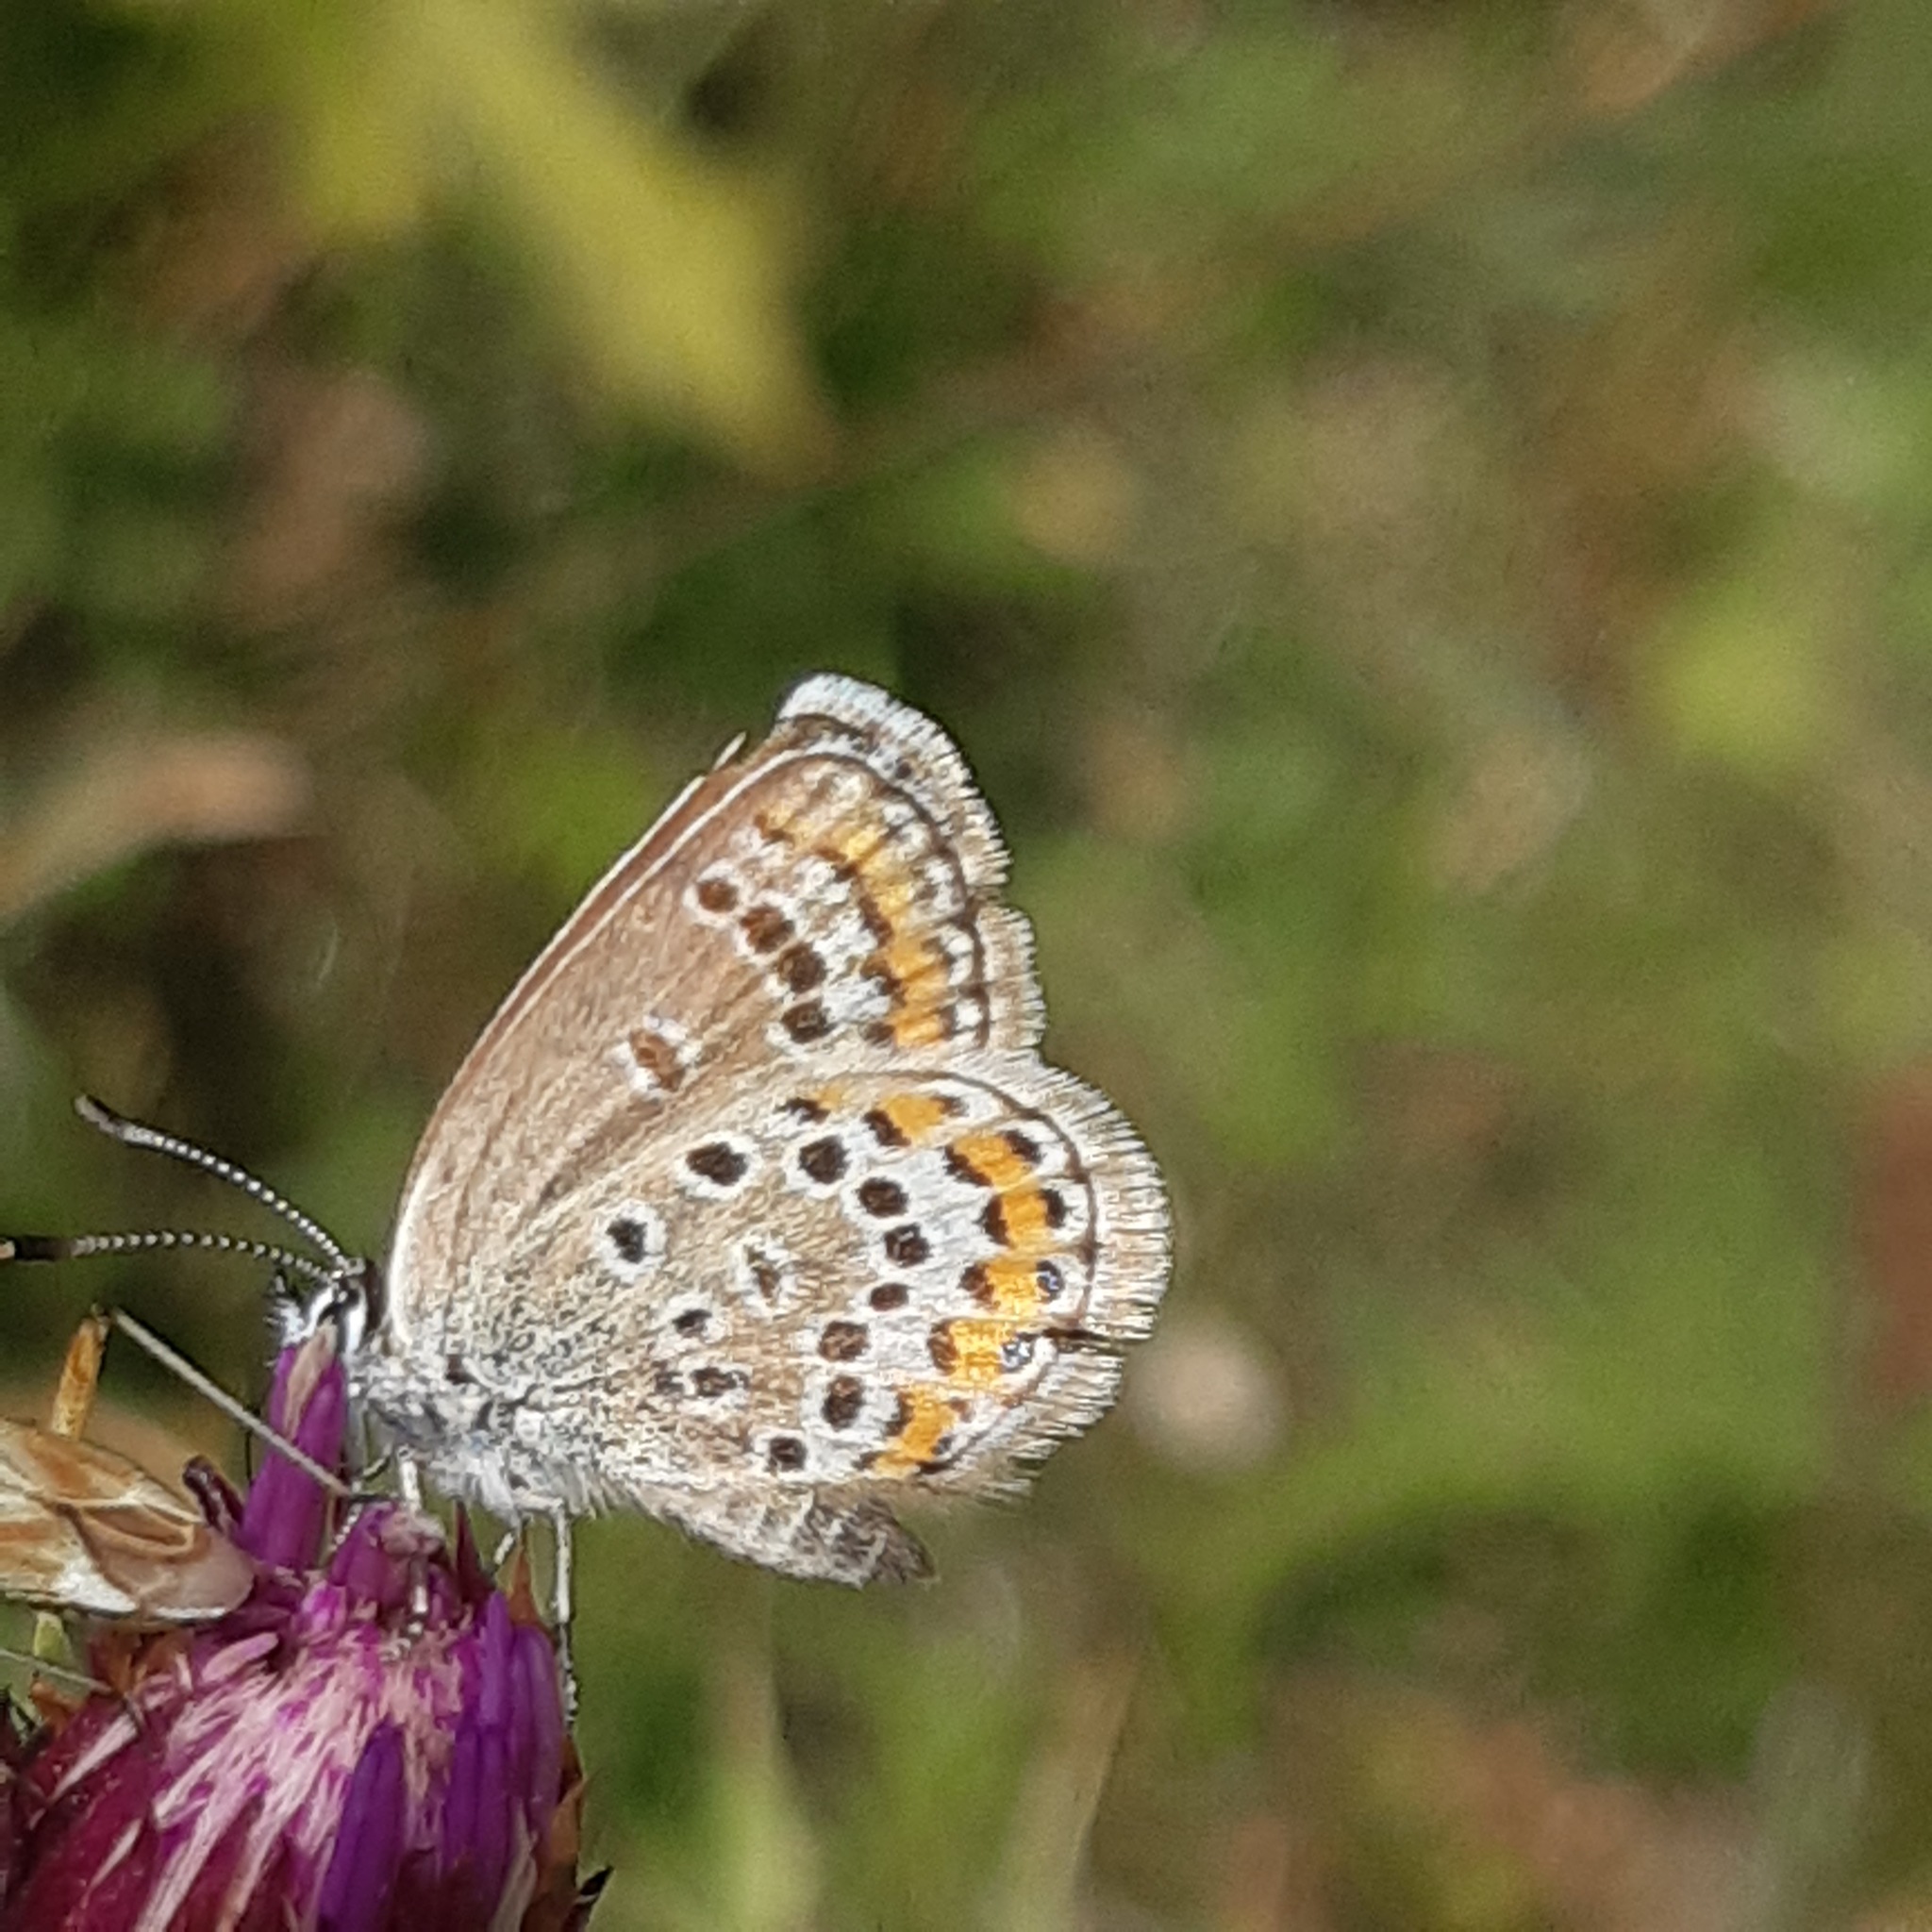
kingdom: Animalia
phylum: Arthropoda
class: Insecta
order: Lepidoptera
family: Lycaenidae
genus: Plebejus
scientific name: Plebejus argus
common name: Silver-studded blue
